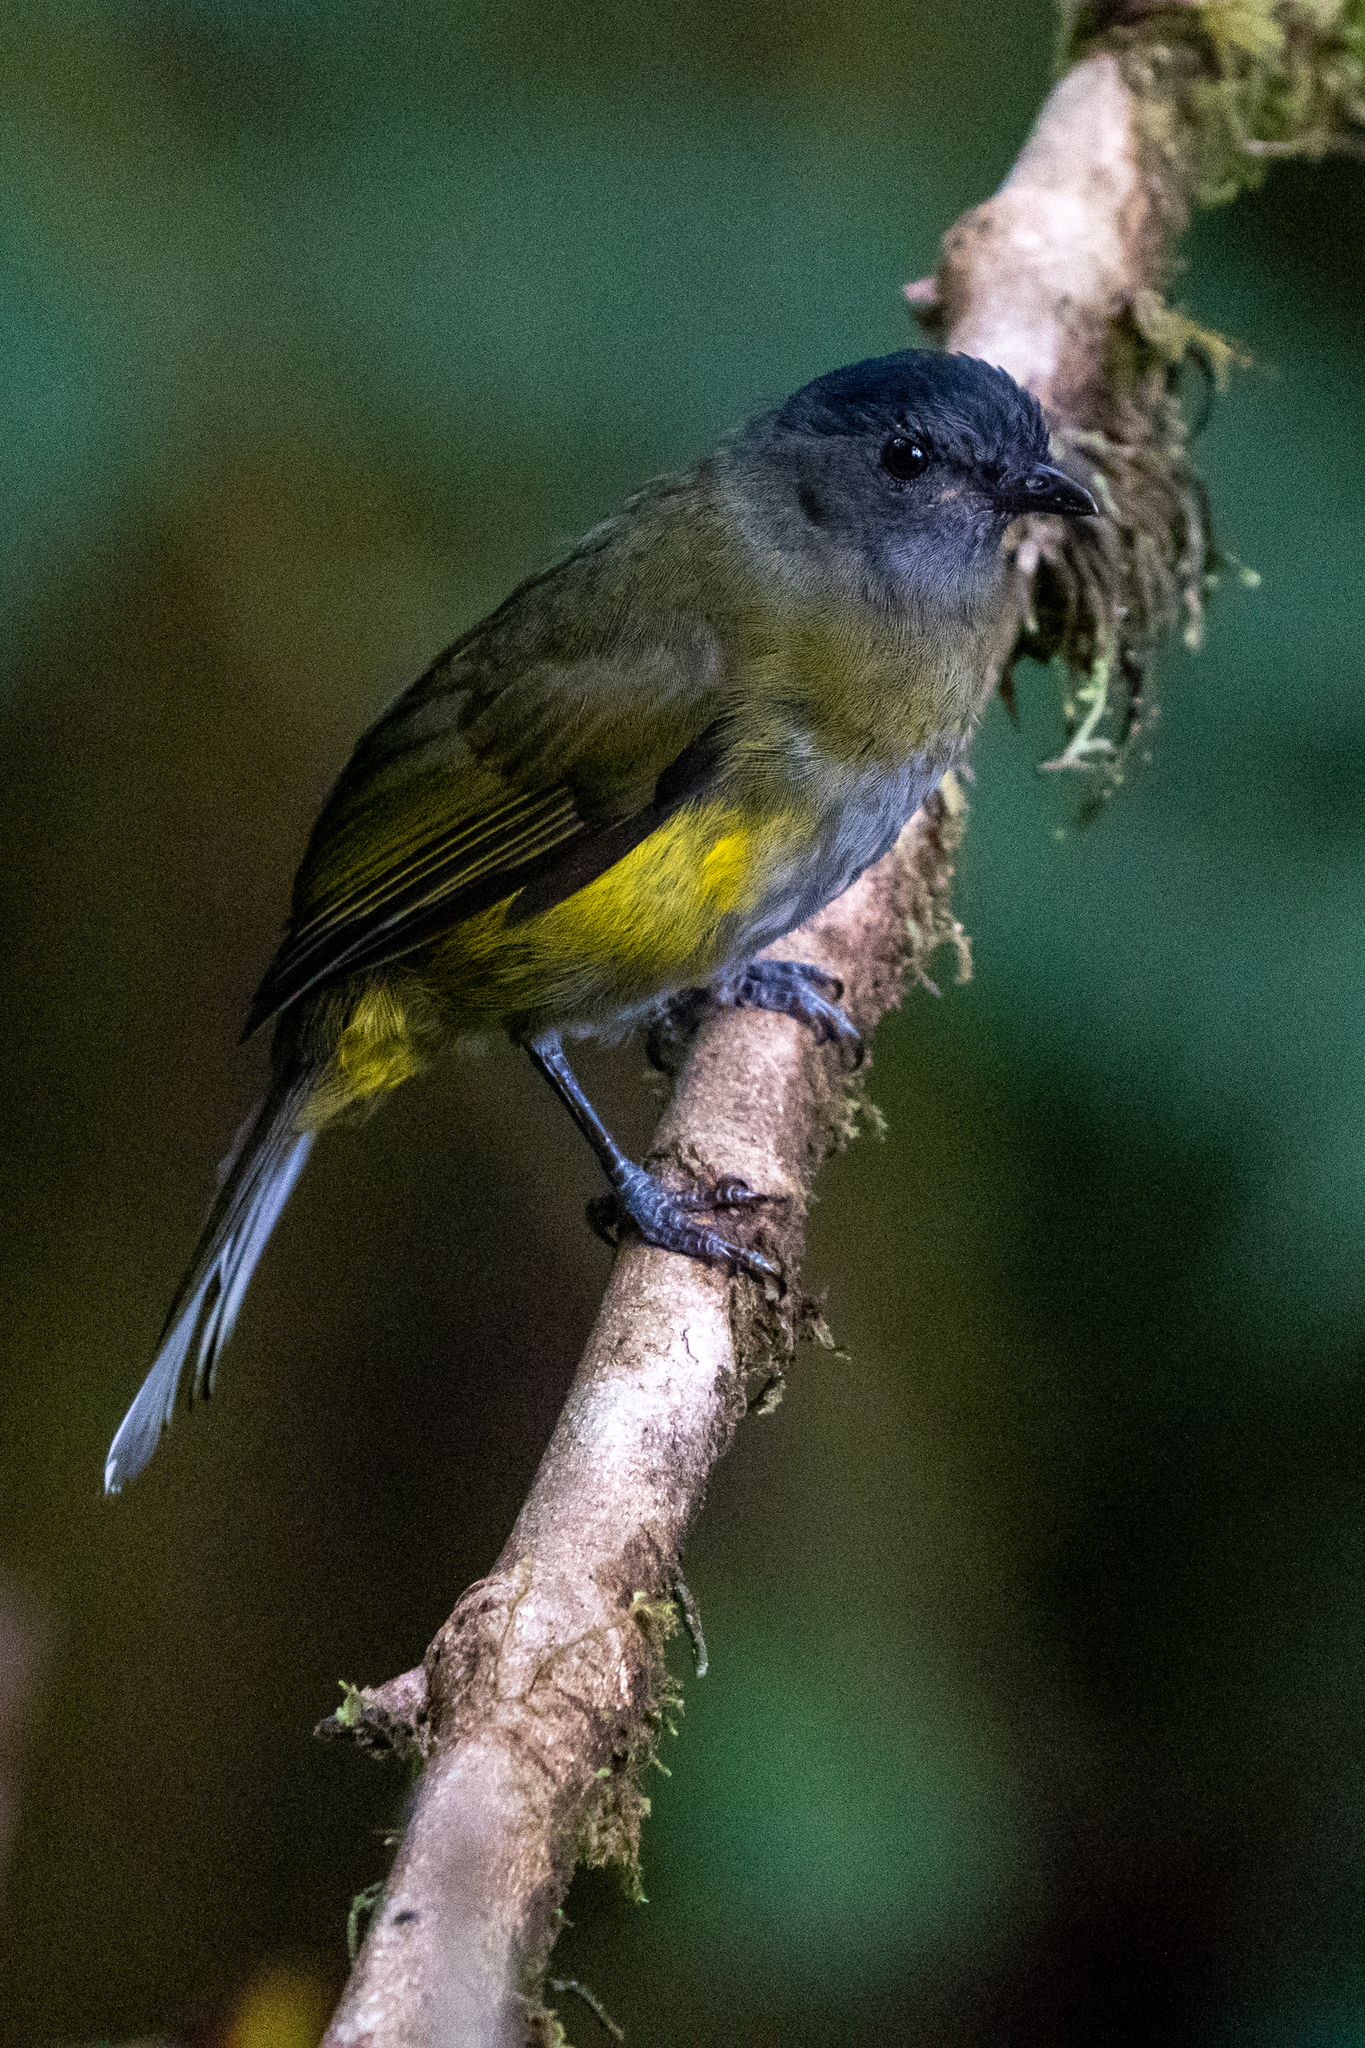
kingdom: Animalia
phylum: Chordata
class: Aves
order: Passeriformes
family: Ptilogonatidae
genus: Phainoptila
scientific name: Phainoptila melanoxantha
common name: Black-and-yellow phainoptila
